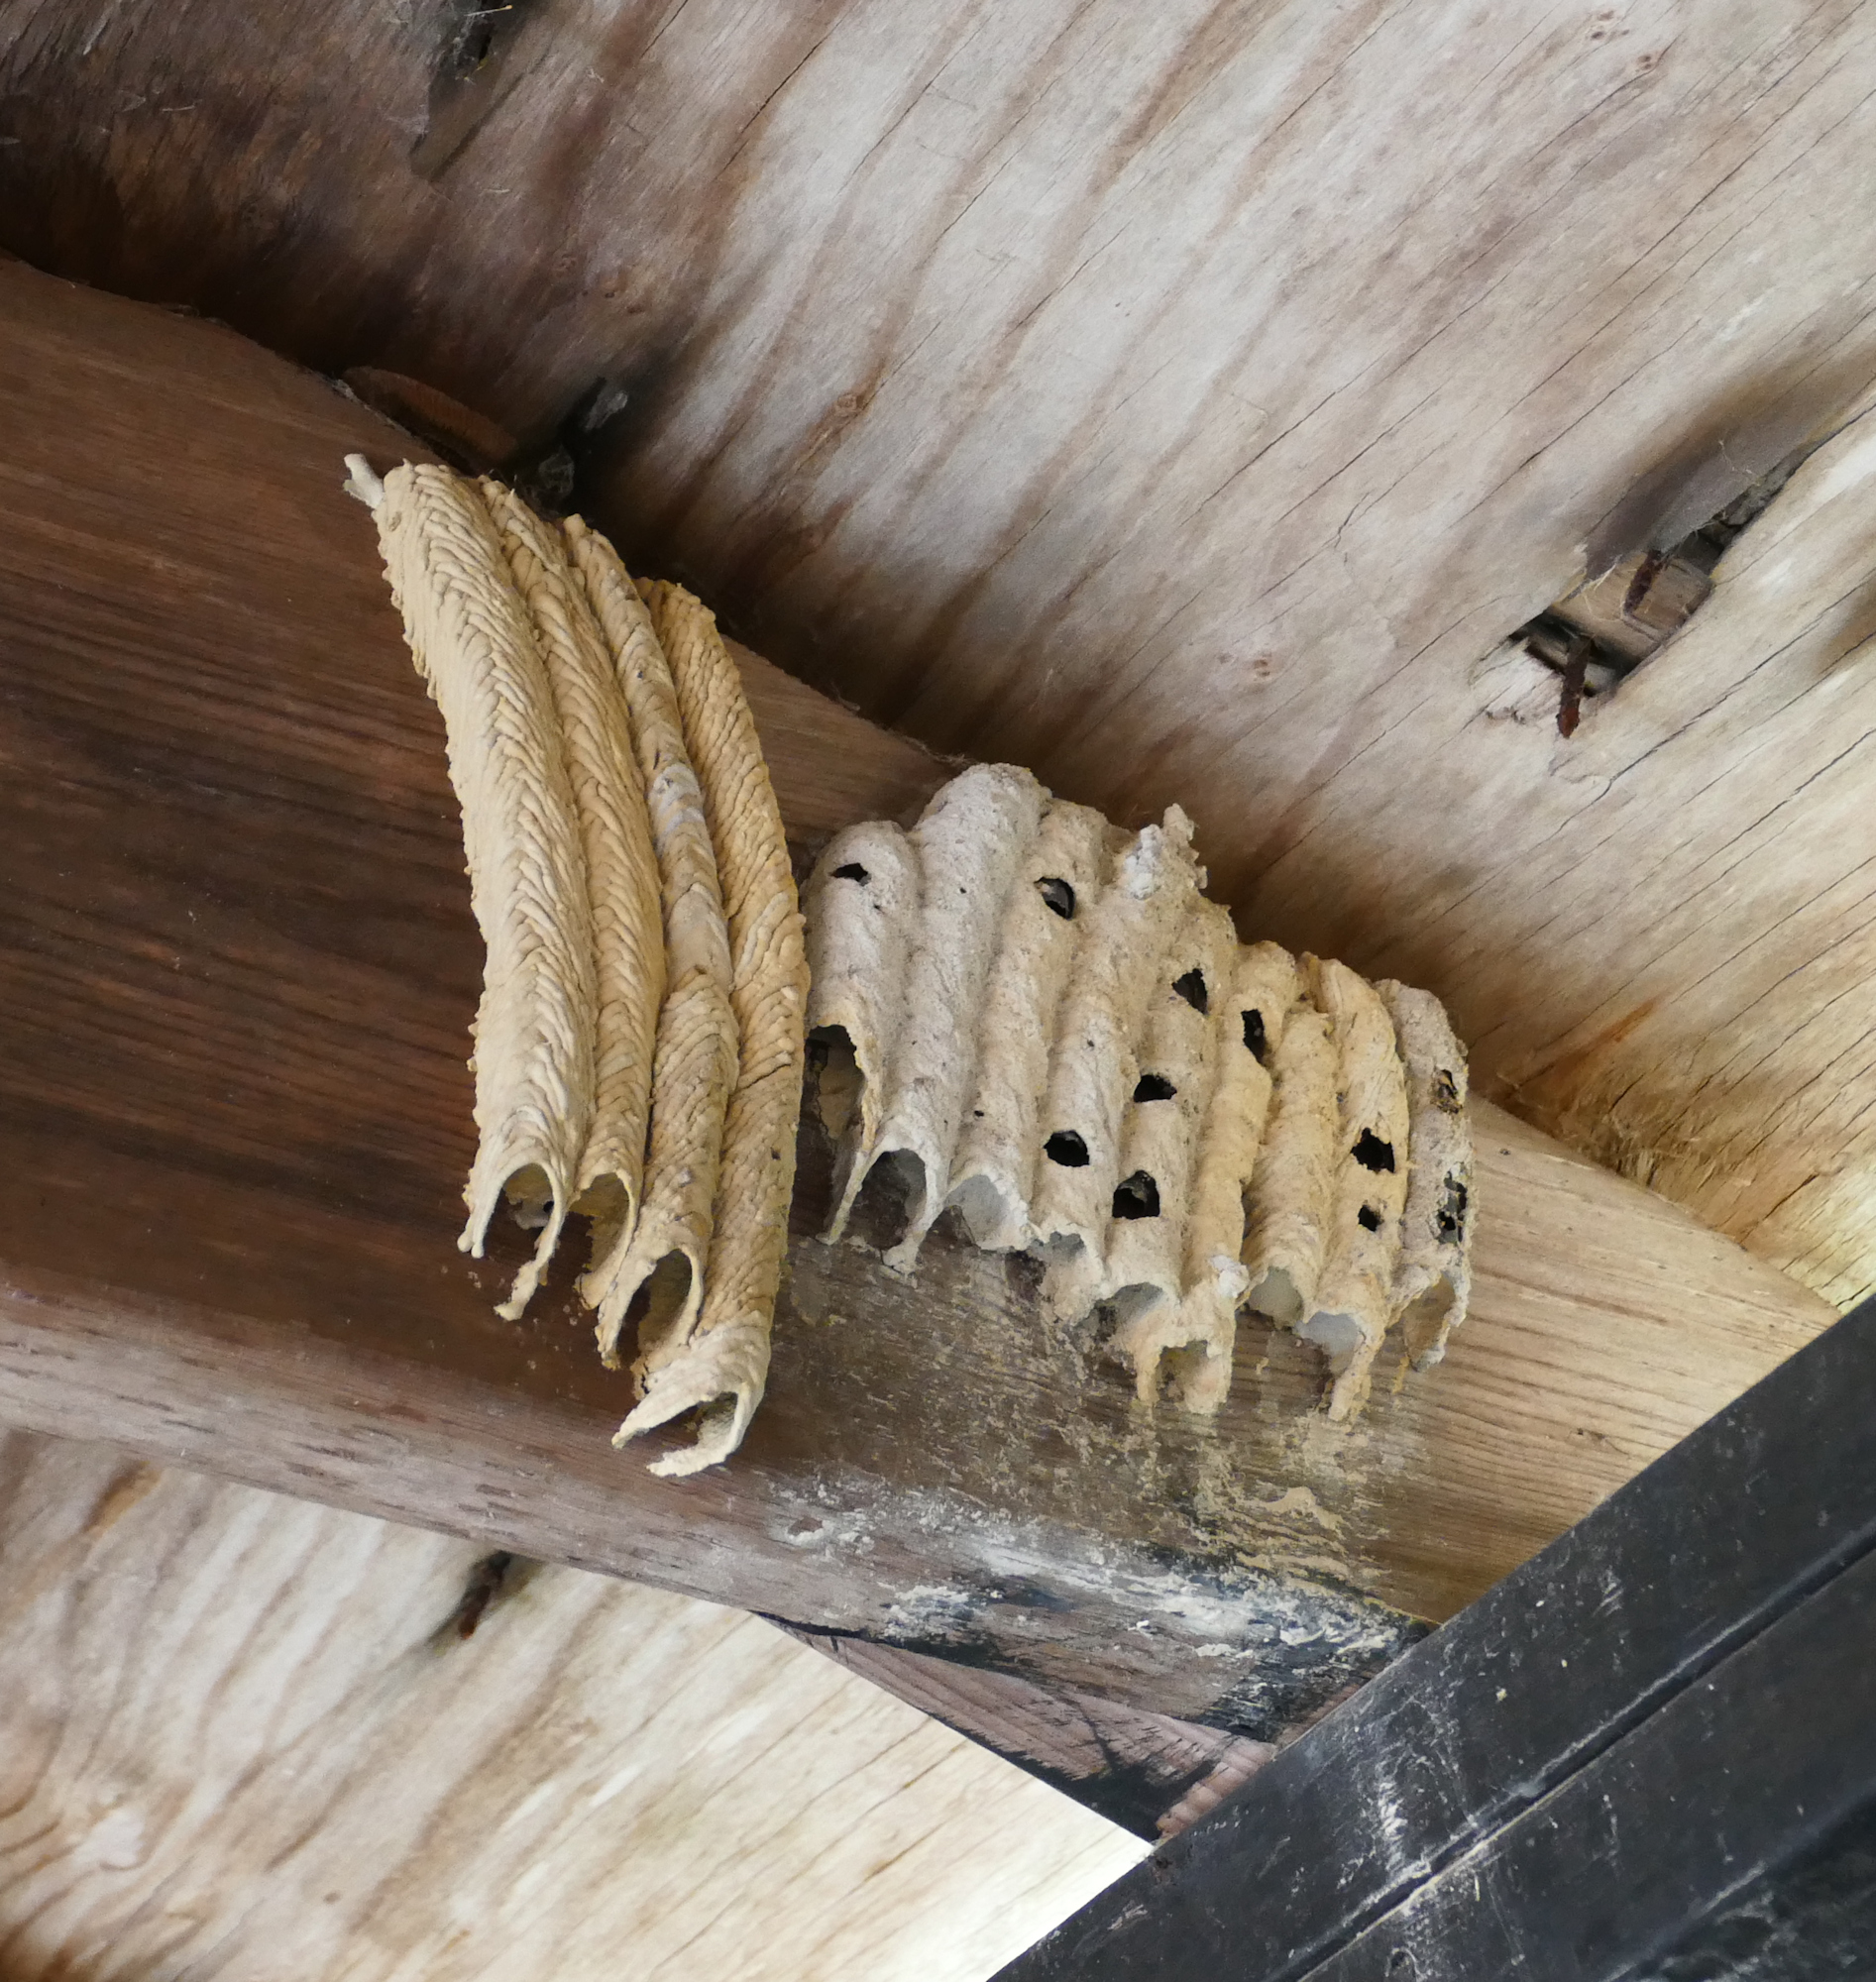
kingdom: Animalia
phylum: Arthropoda
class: Insecta
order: Hymenoptera
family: Crabronidae
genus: Trypoxylon
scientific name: Trypoxylon politum
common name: Organ-pipe mud-dauber wasp
